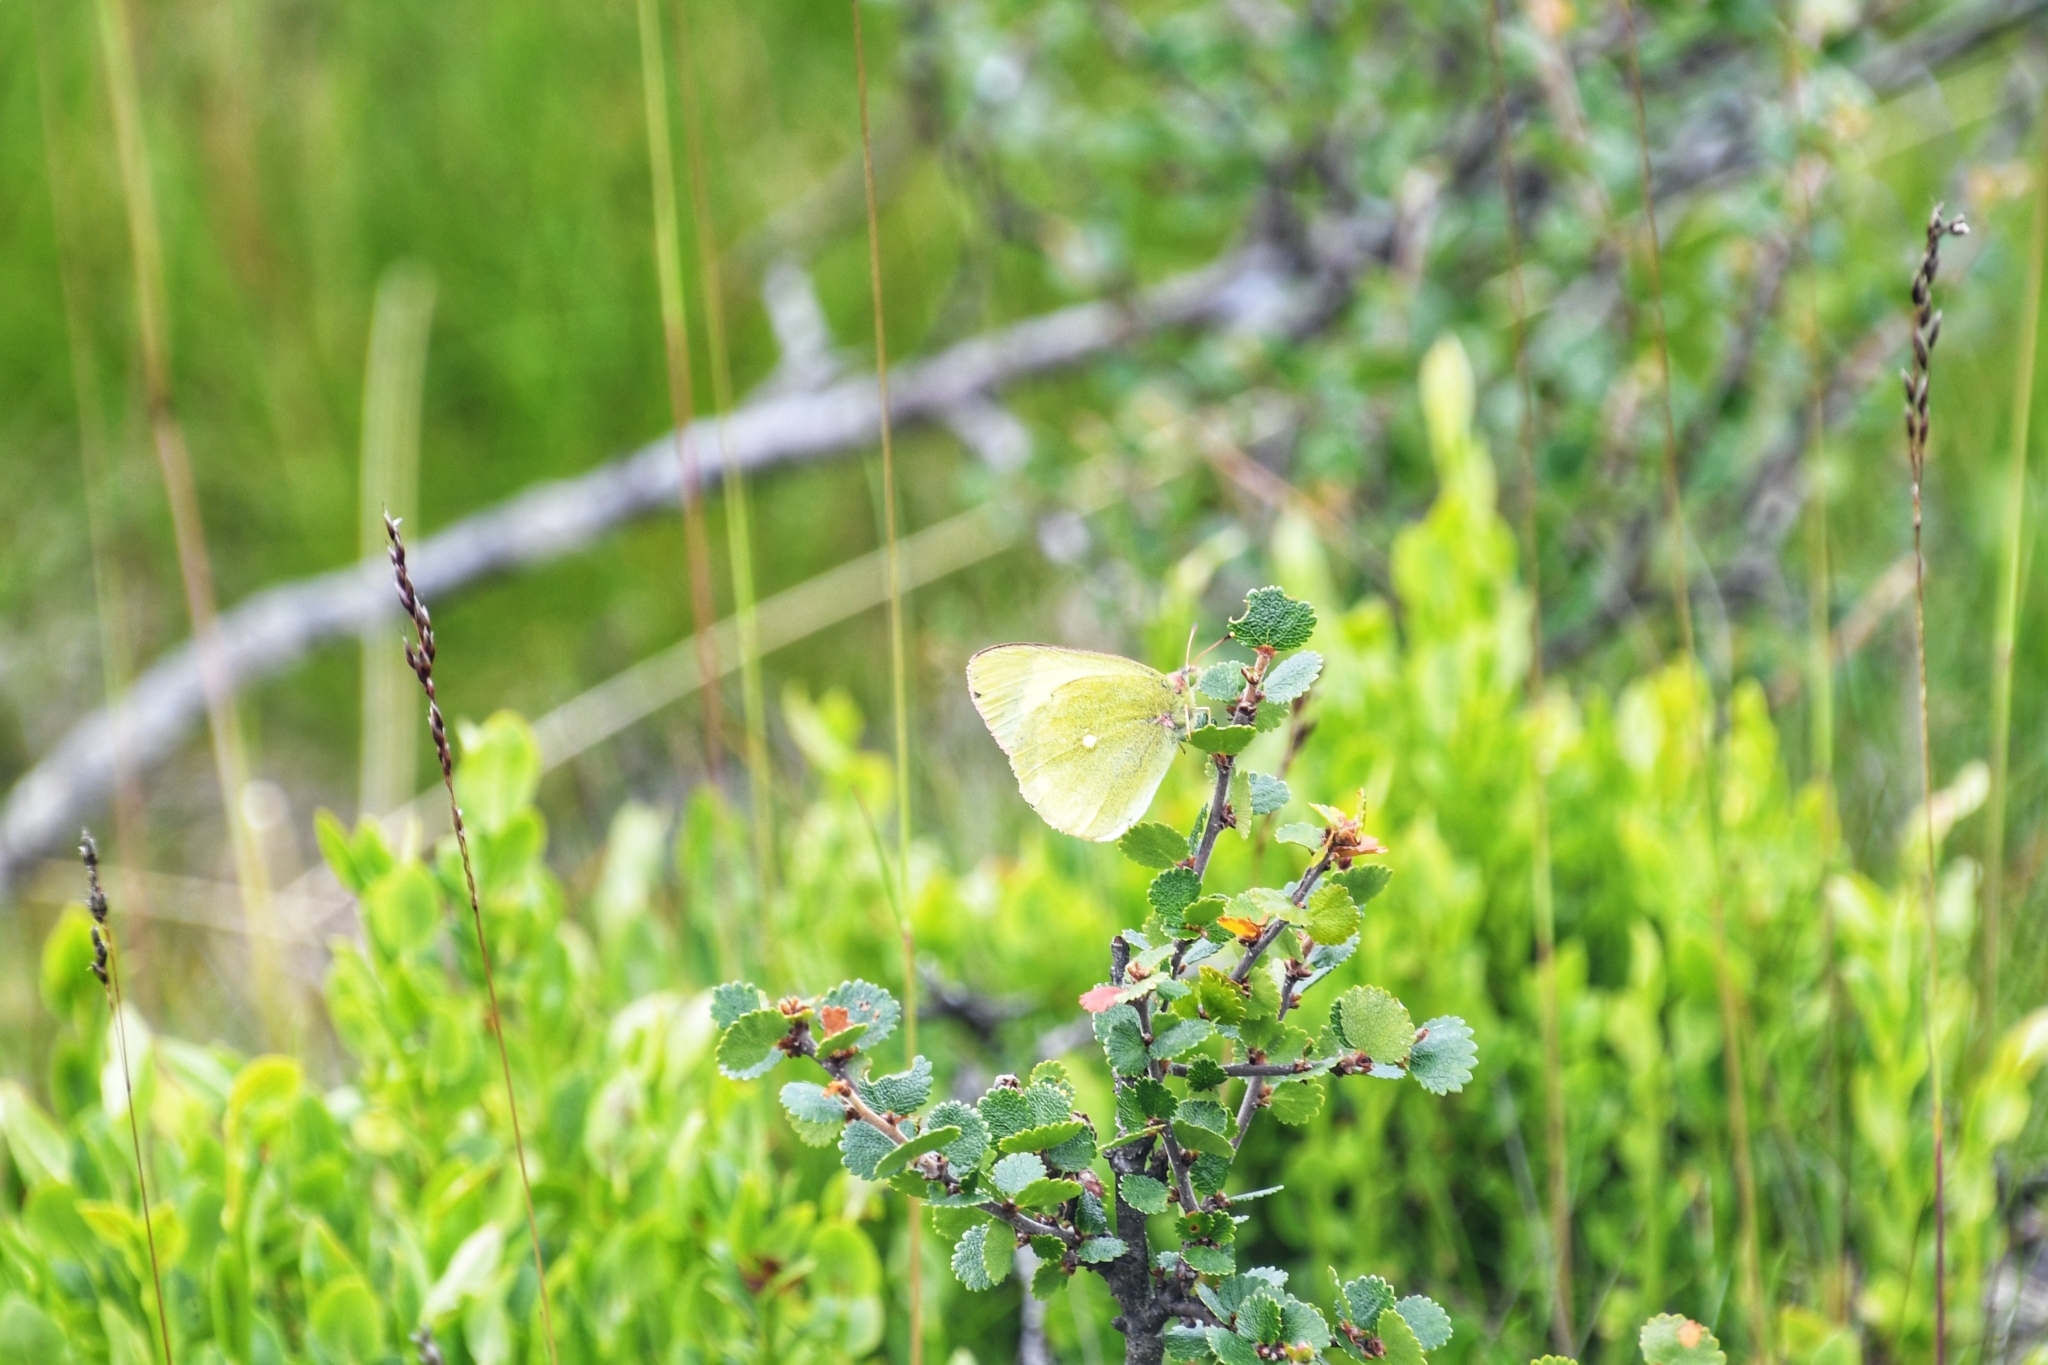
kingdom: Animalia
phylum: Arthropoda
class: Insecta
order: Lepidoptera
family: Pieridae
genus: Colias
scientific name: Colias palaeno
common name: Moorland clouded yellow
